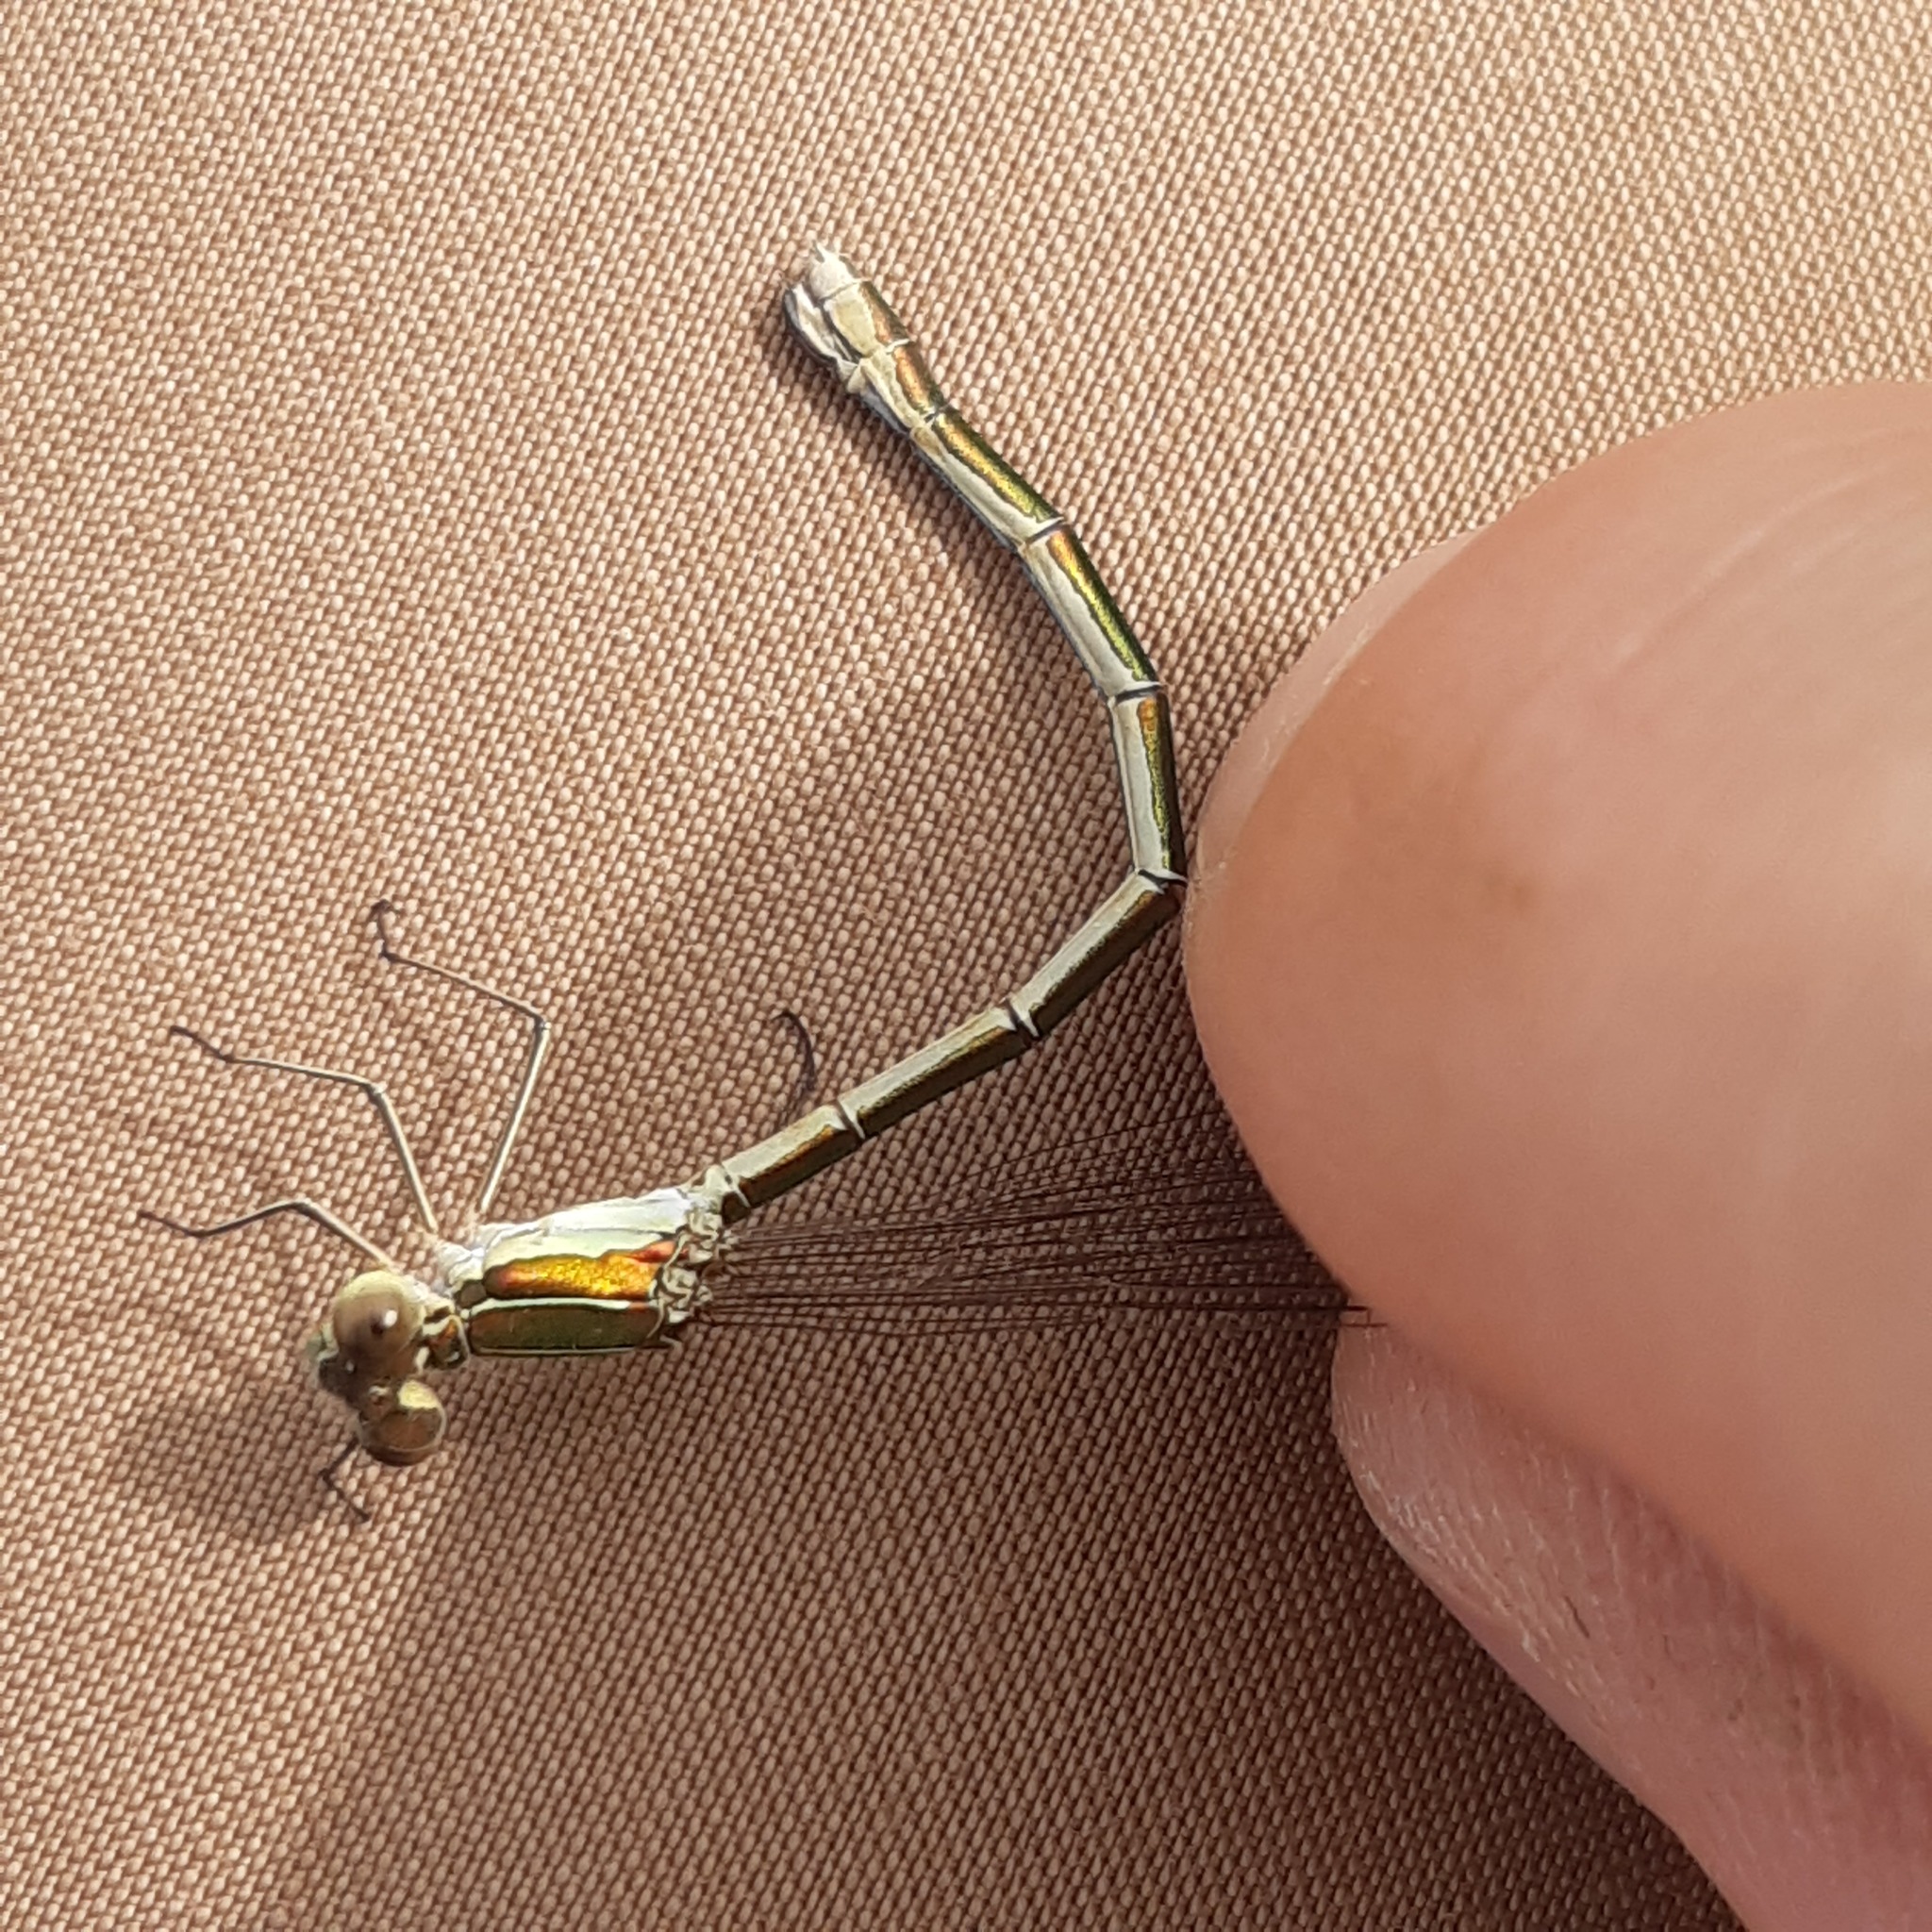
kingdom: Animalia
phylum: Arthropoda
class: Insecta
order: Odonata
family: Lestidae
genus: Lestes
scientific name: Lestes virens
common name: Small emerald spreadwing
